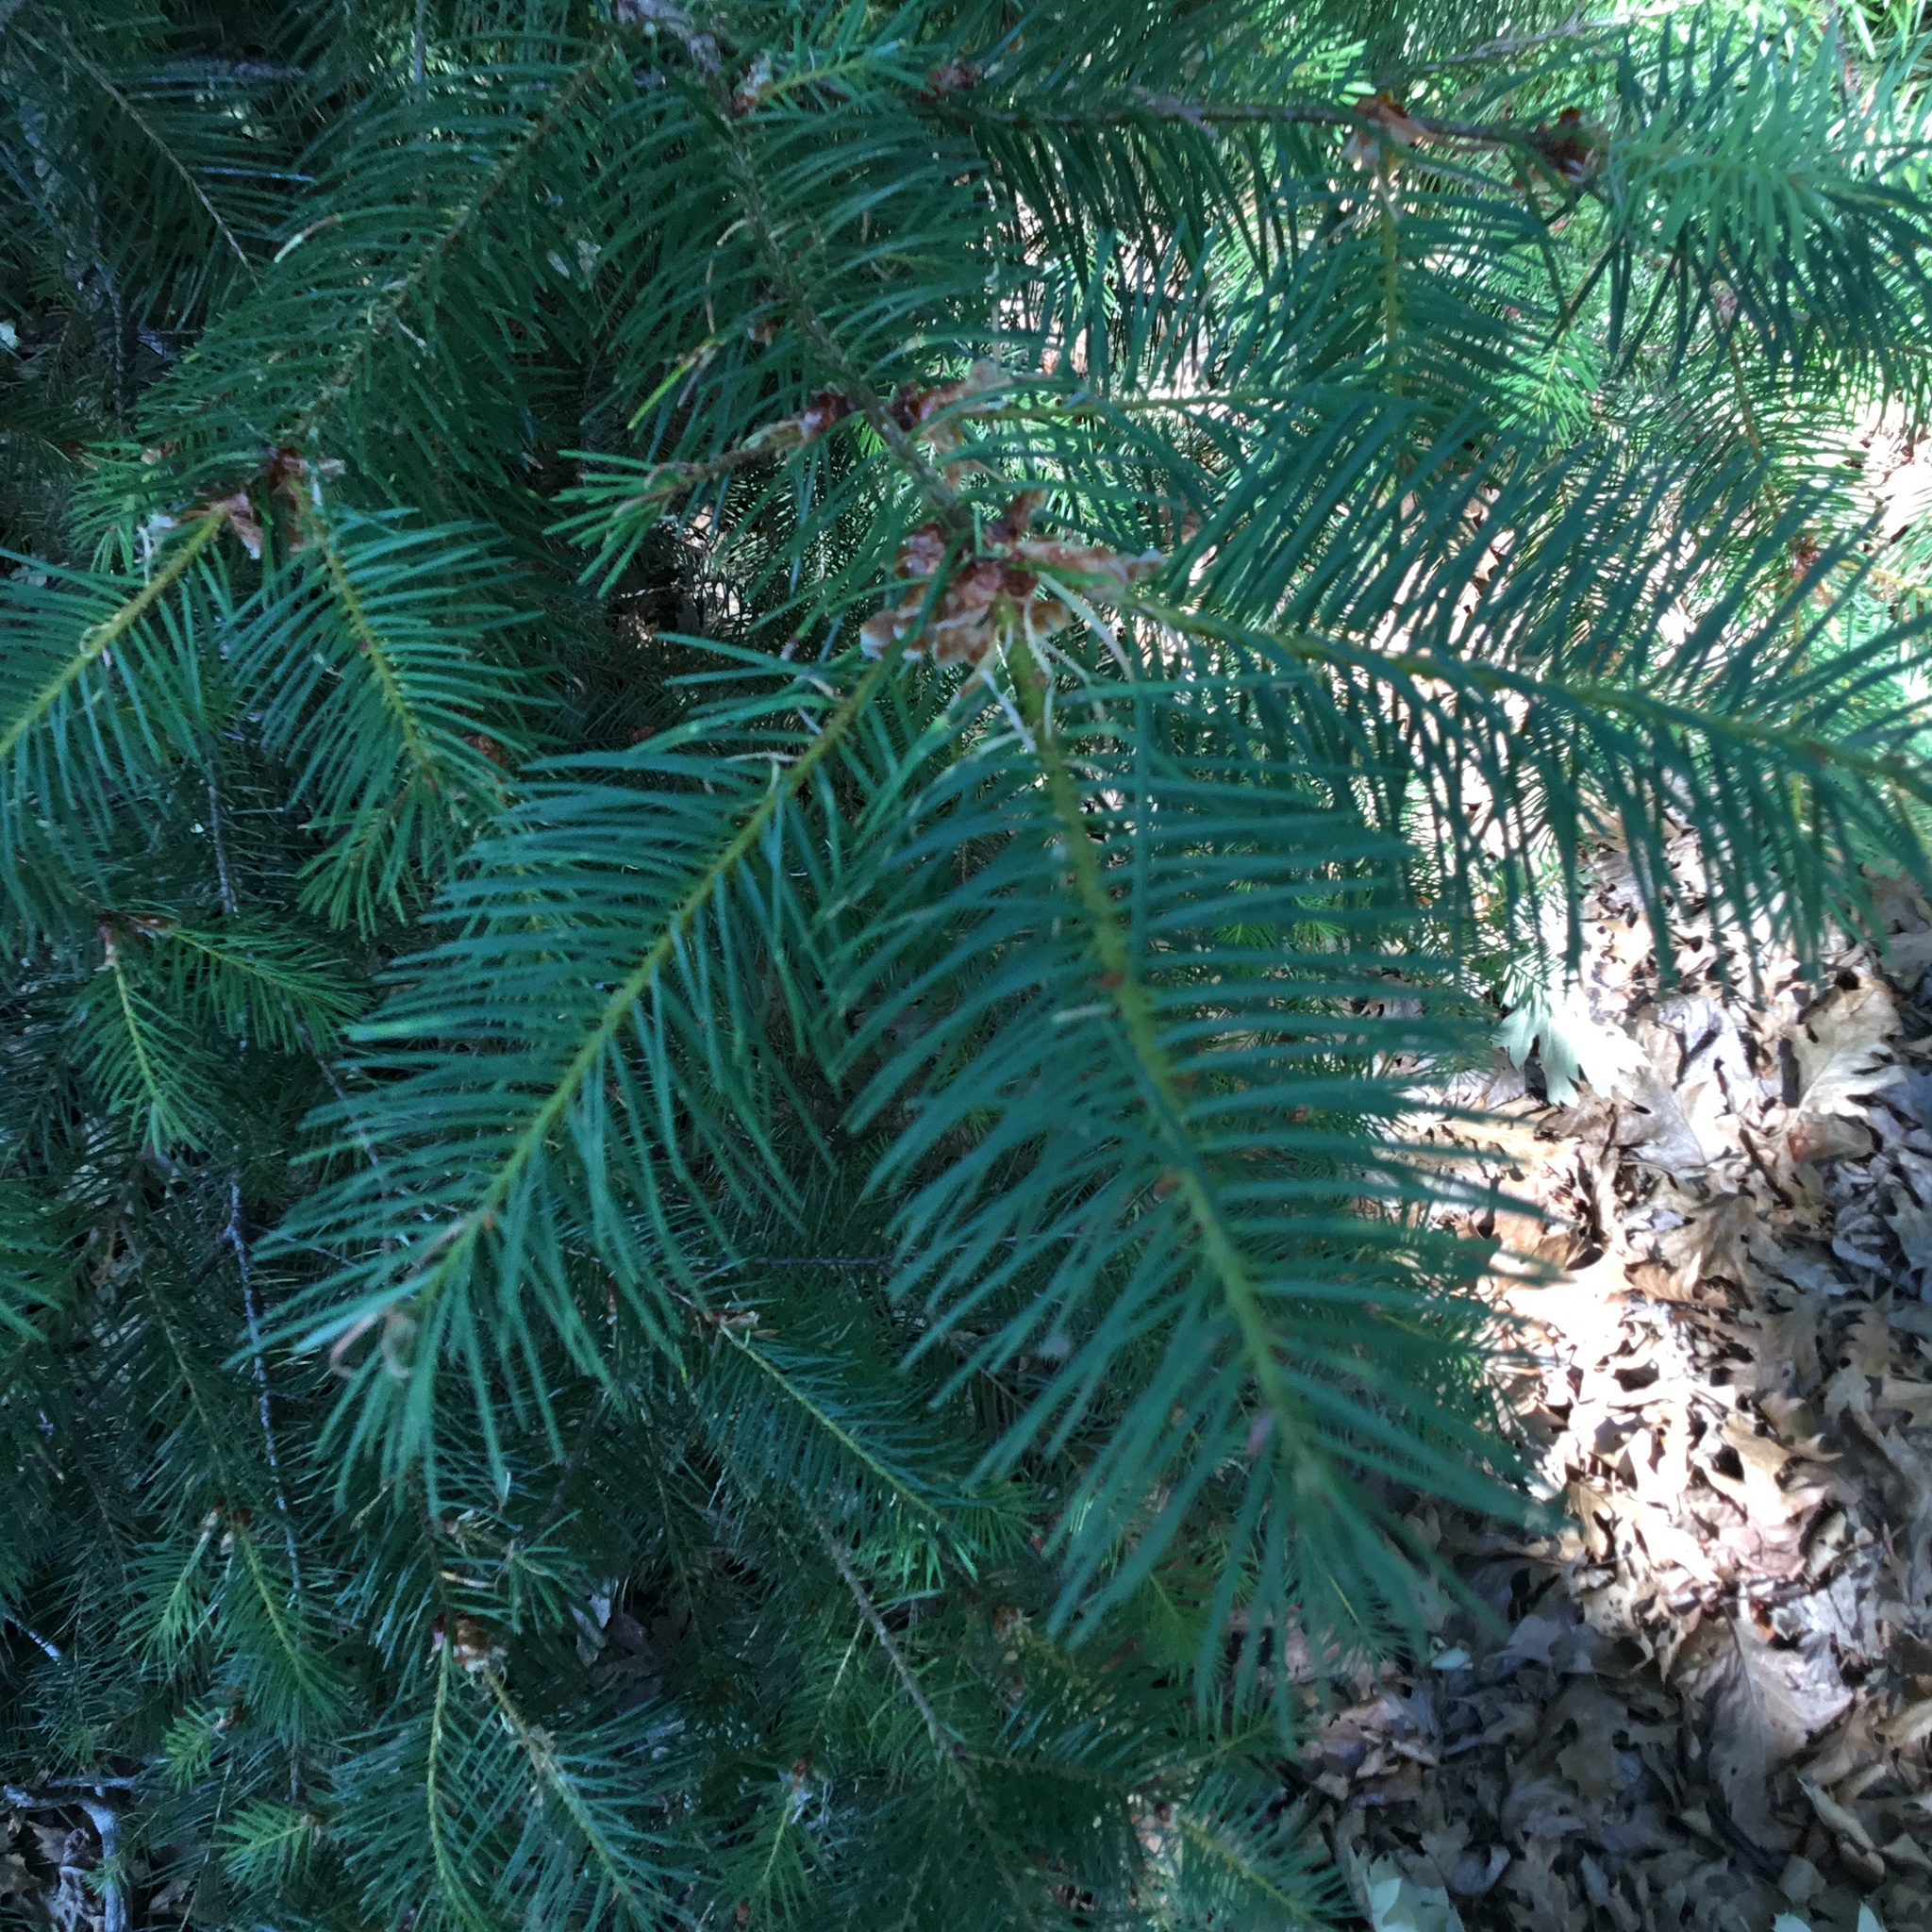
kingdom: Plantae
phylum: Tracheophyta
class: Pinopsida
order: Pinales
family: Pinaceae
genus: Pseudotsuga
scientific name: Pseudotsuga menziesii
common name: Douglas fir
